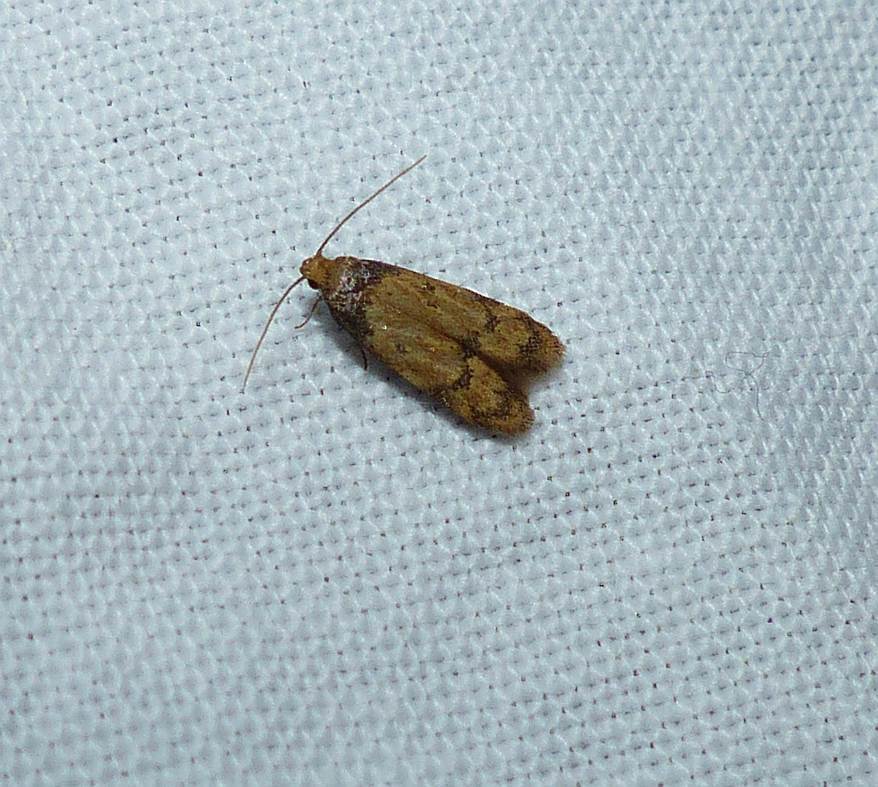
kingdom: Animalia
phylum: Arthropoda
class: Insecta
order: Lepidoptera
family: Autostichidae
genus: Gerdana
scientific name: Gerdana caritella
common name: Gerdana moth
